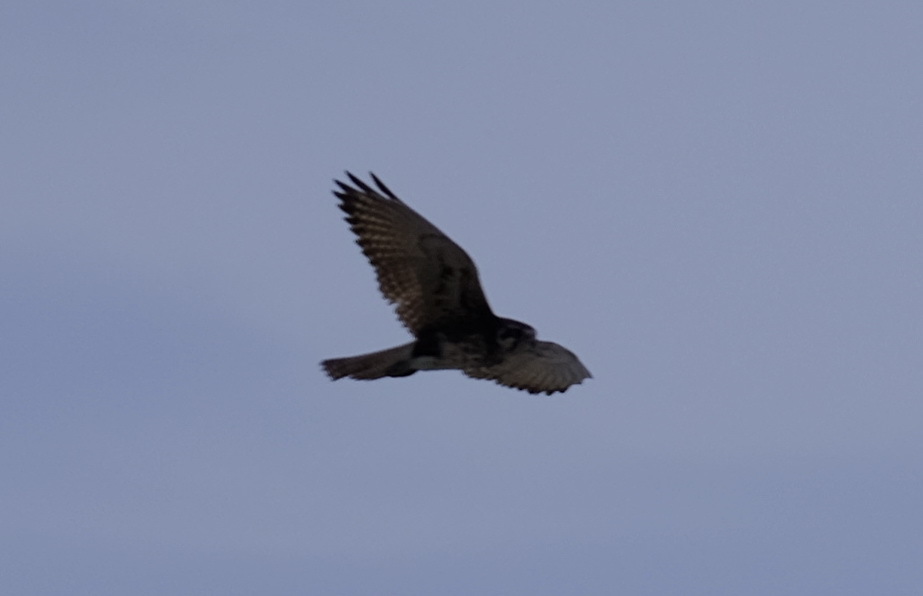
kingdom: Animalia
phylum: Chordata
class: Aves
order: Falconiformes
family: Falconidae
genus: Falco
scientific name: Falco berigora
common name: Brown falcon
